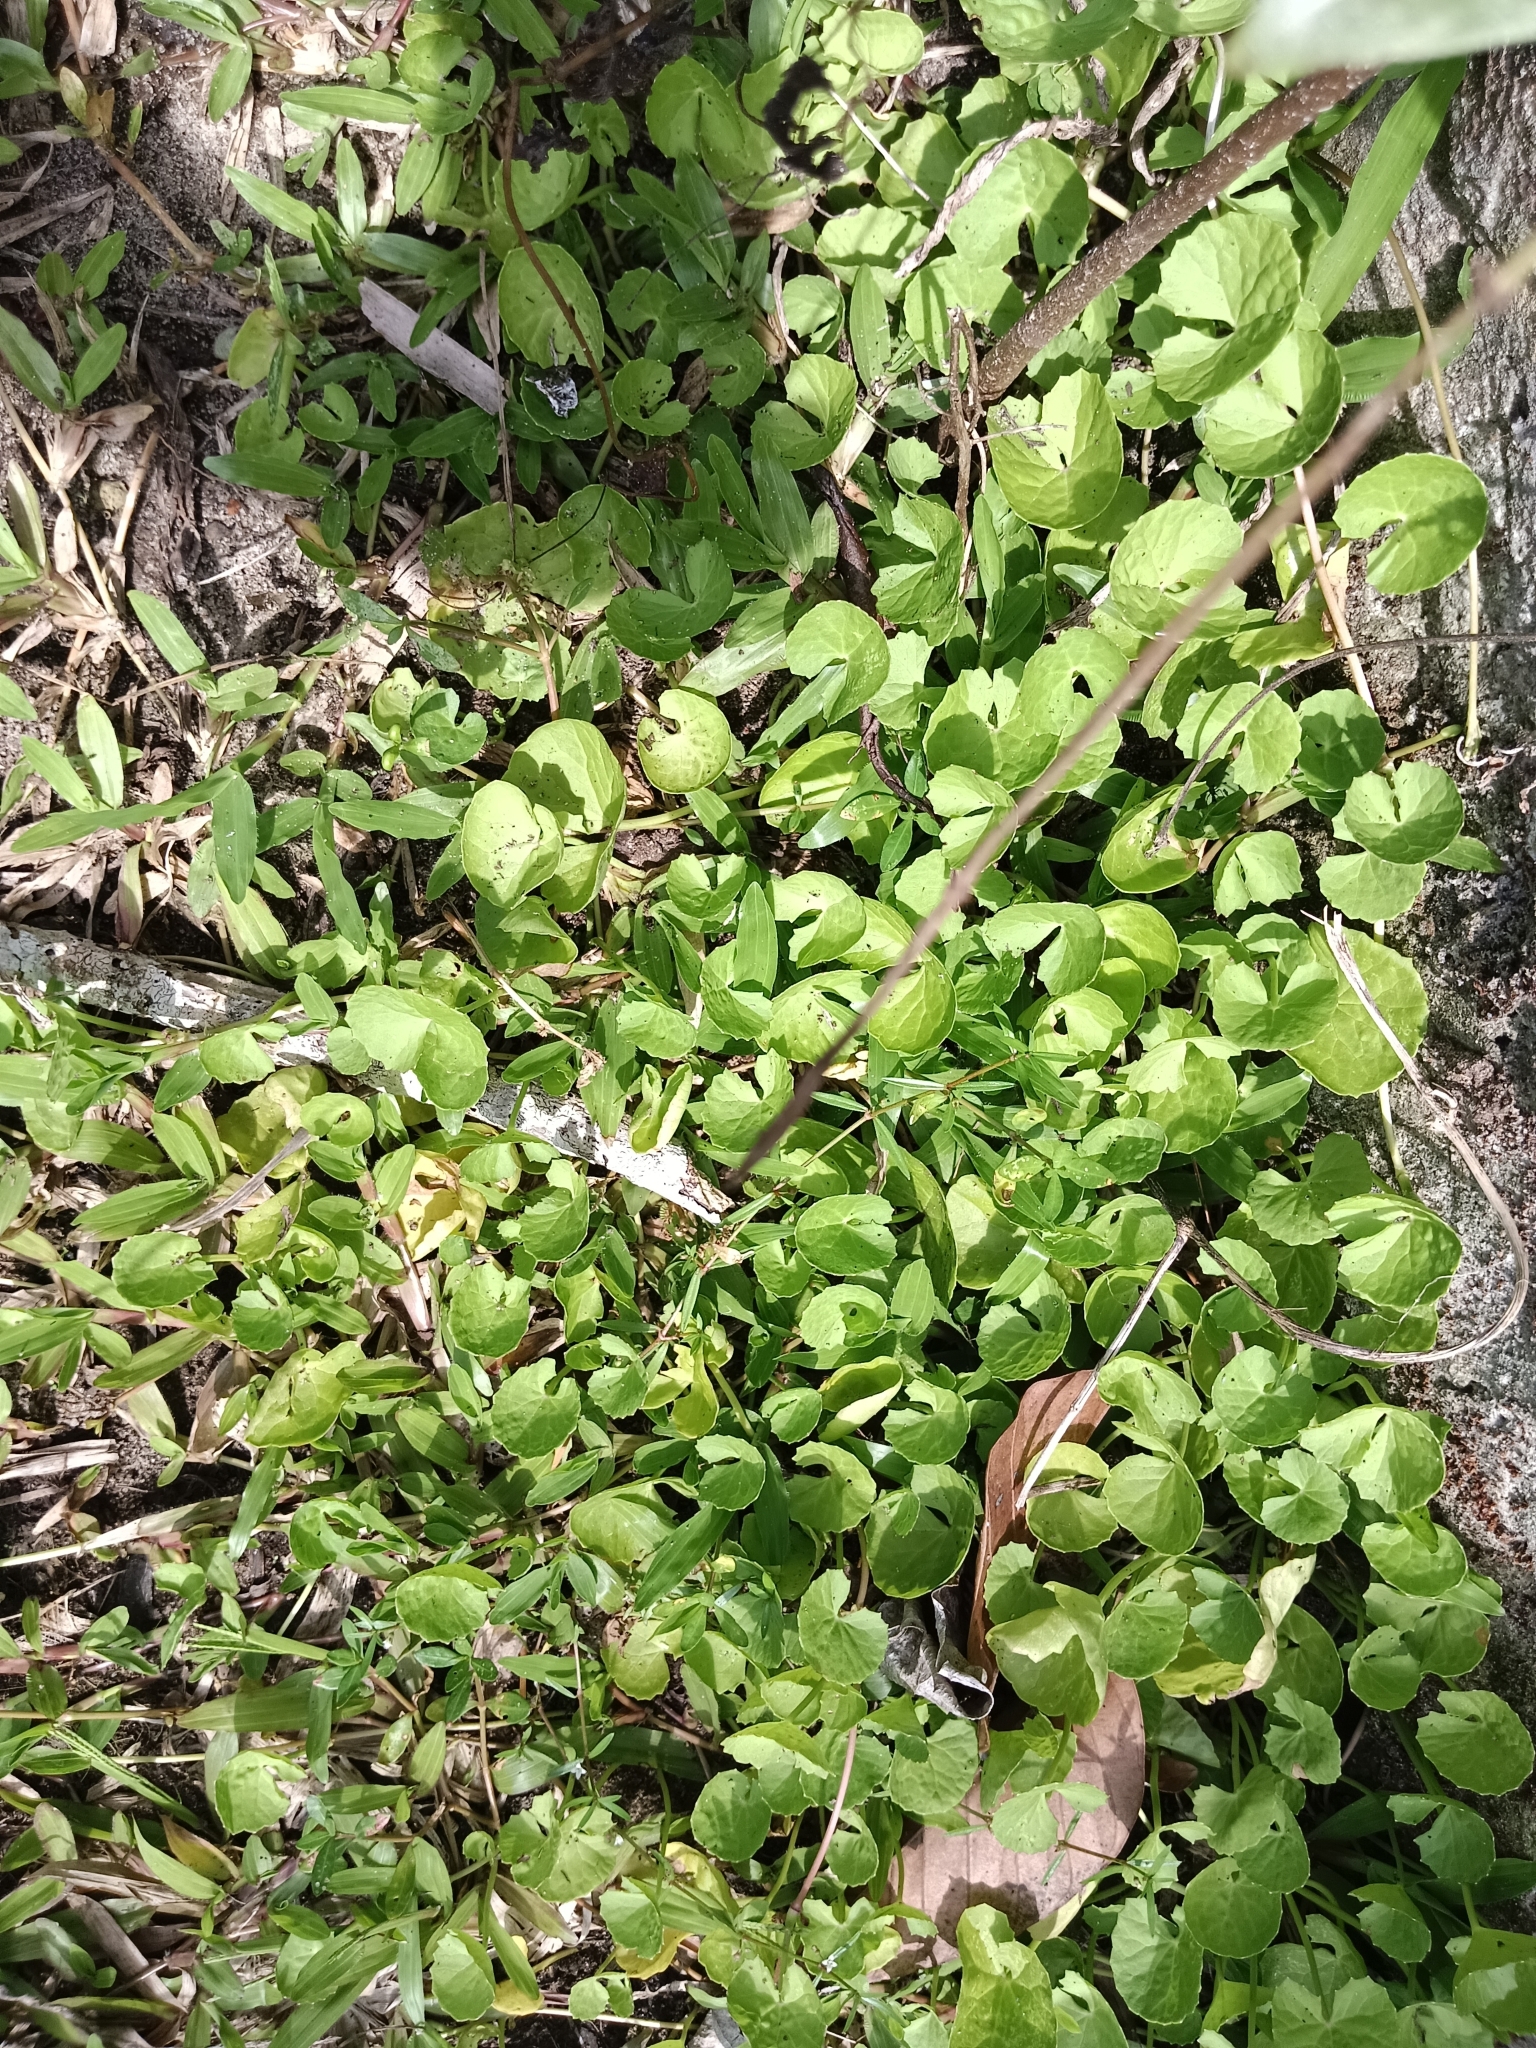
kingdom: Plantae
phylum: Tracheophyta
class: Magnoliopsida
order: Apiales
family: Apiaceae
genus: Centella
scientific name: Centella asiatica
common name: Spadeleaf
